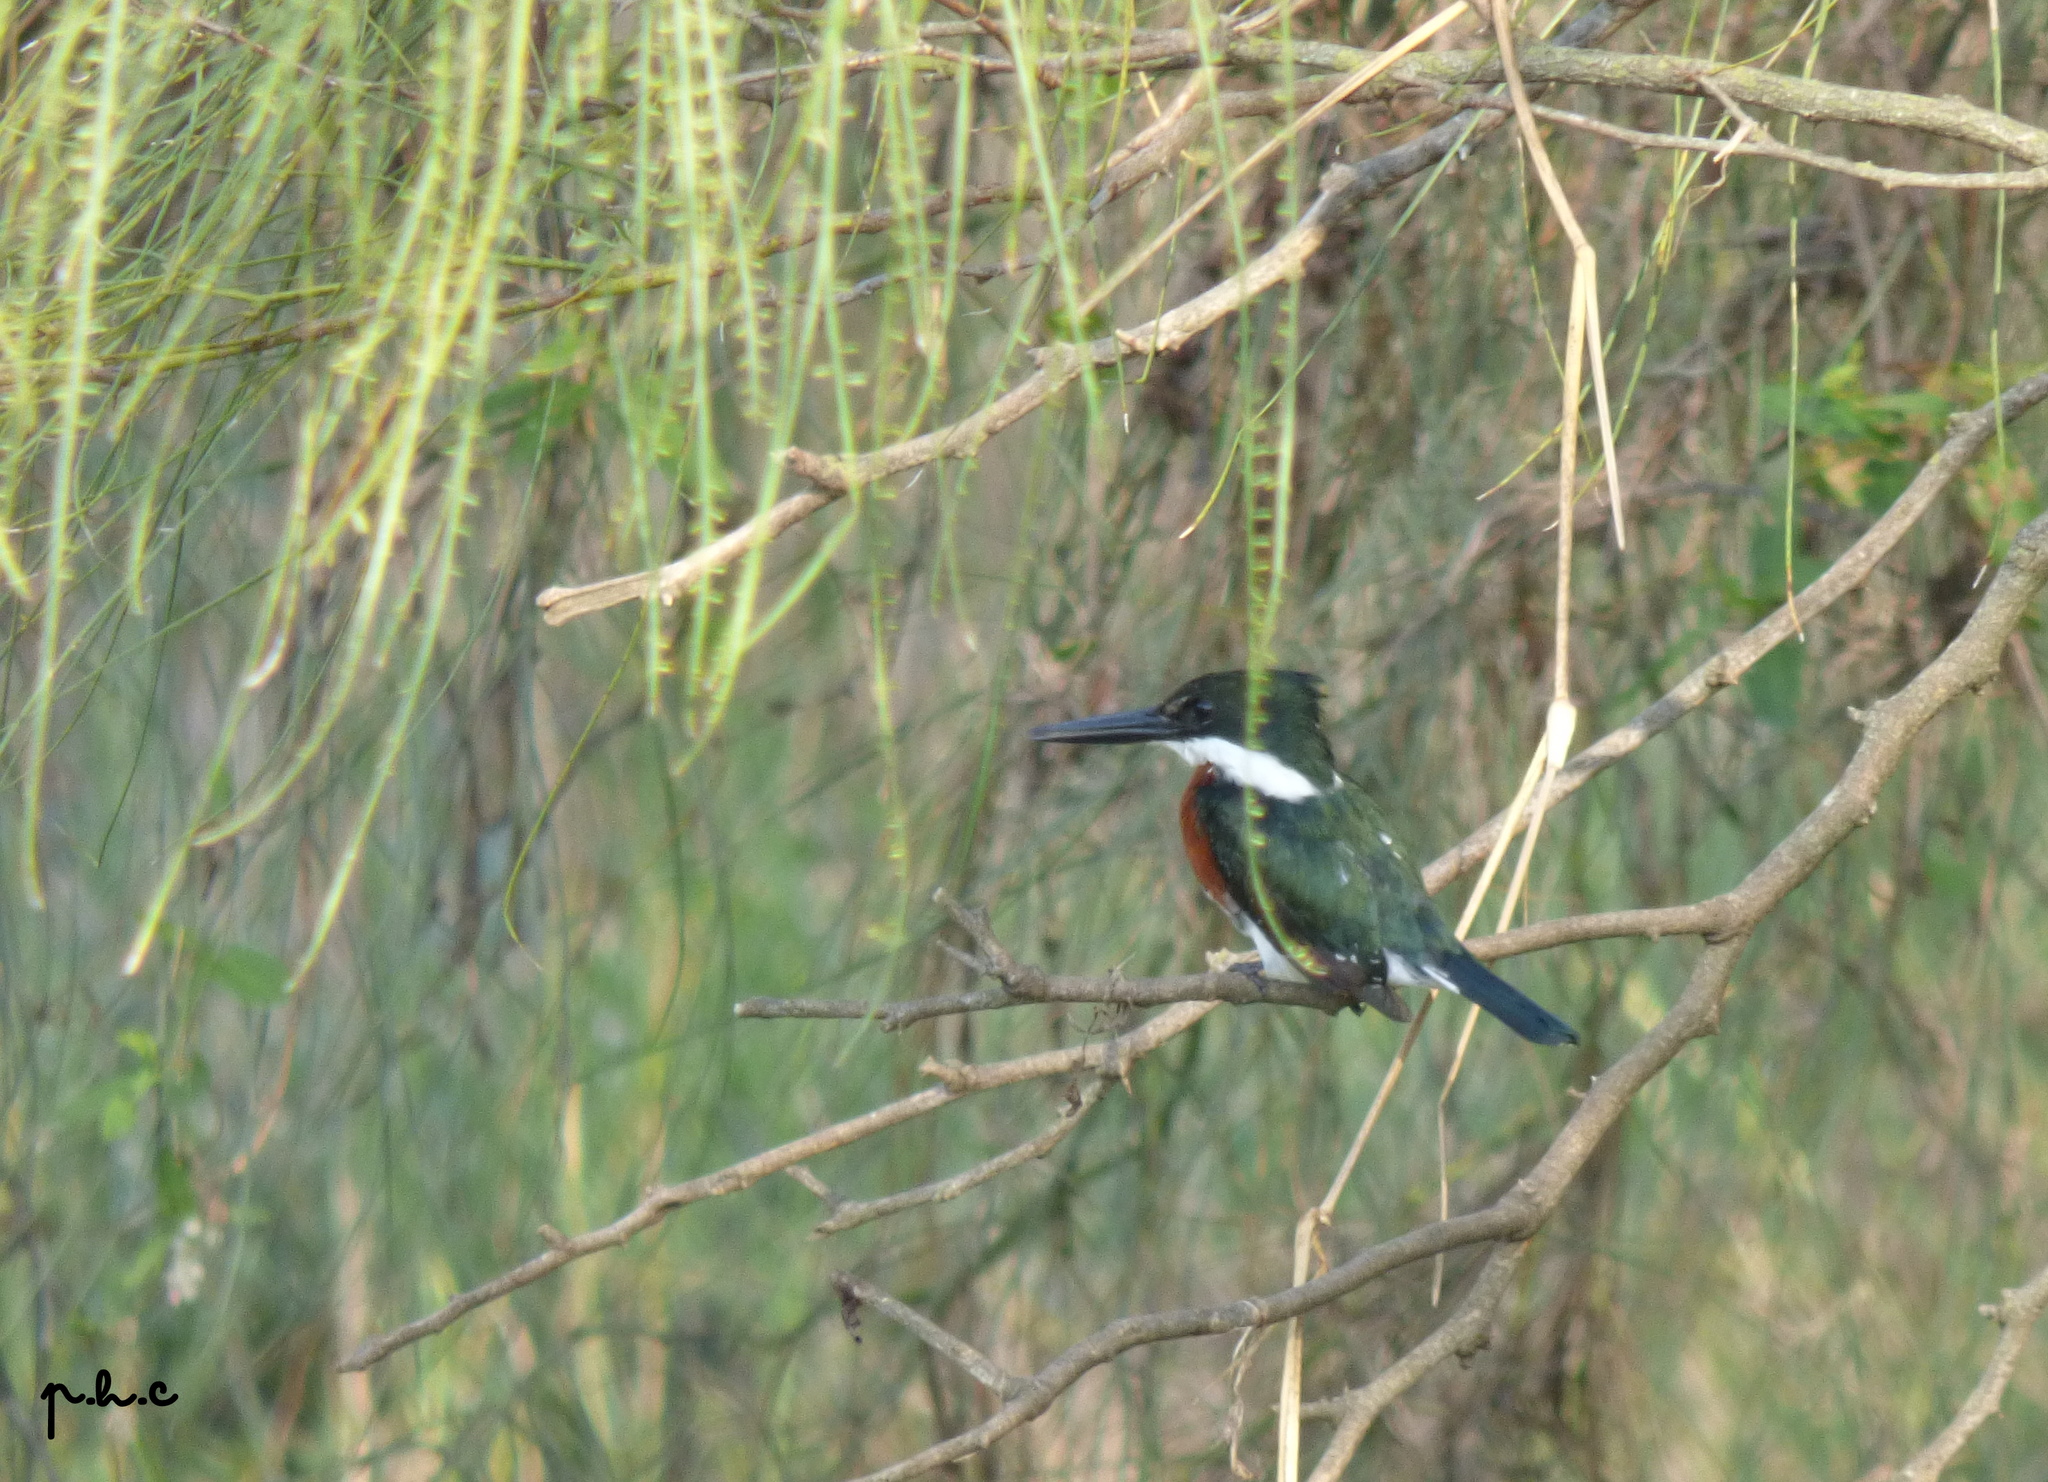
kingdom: Animalia
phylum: Chordata
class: Aves
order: Coraciiformes
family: Alcedinidae
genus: Chloroceryle
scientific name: Chloroceryle americana
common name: Green kingfisher
